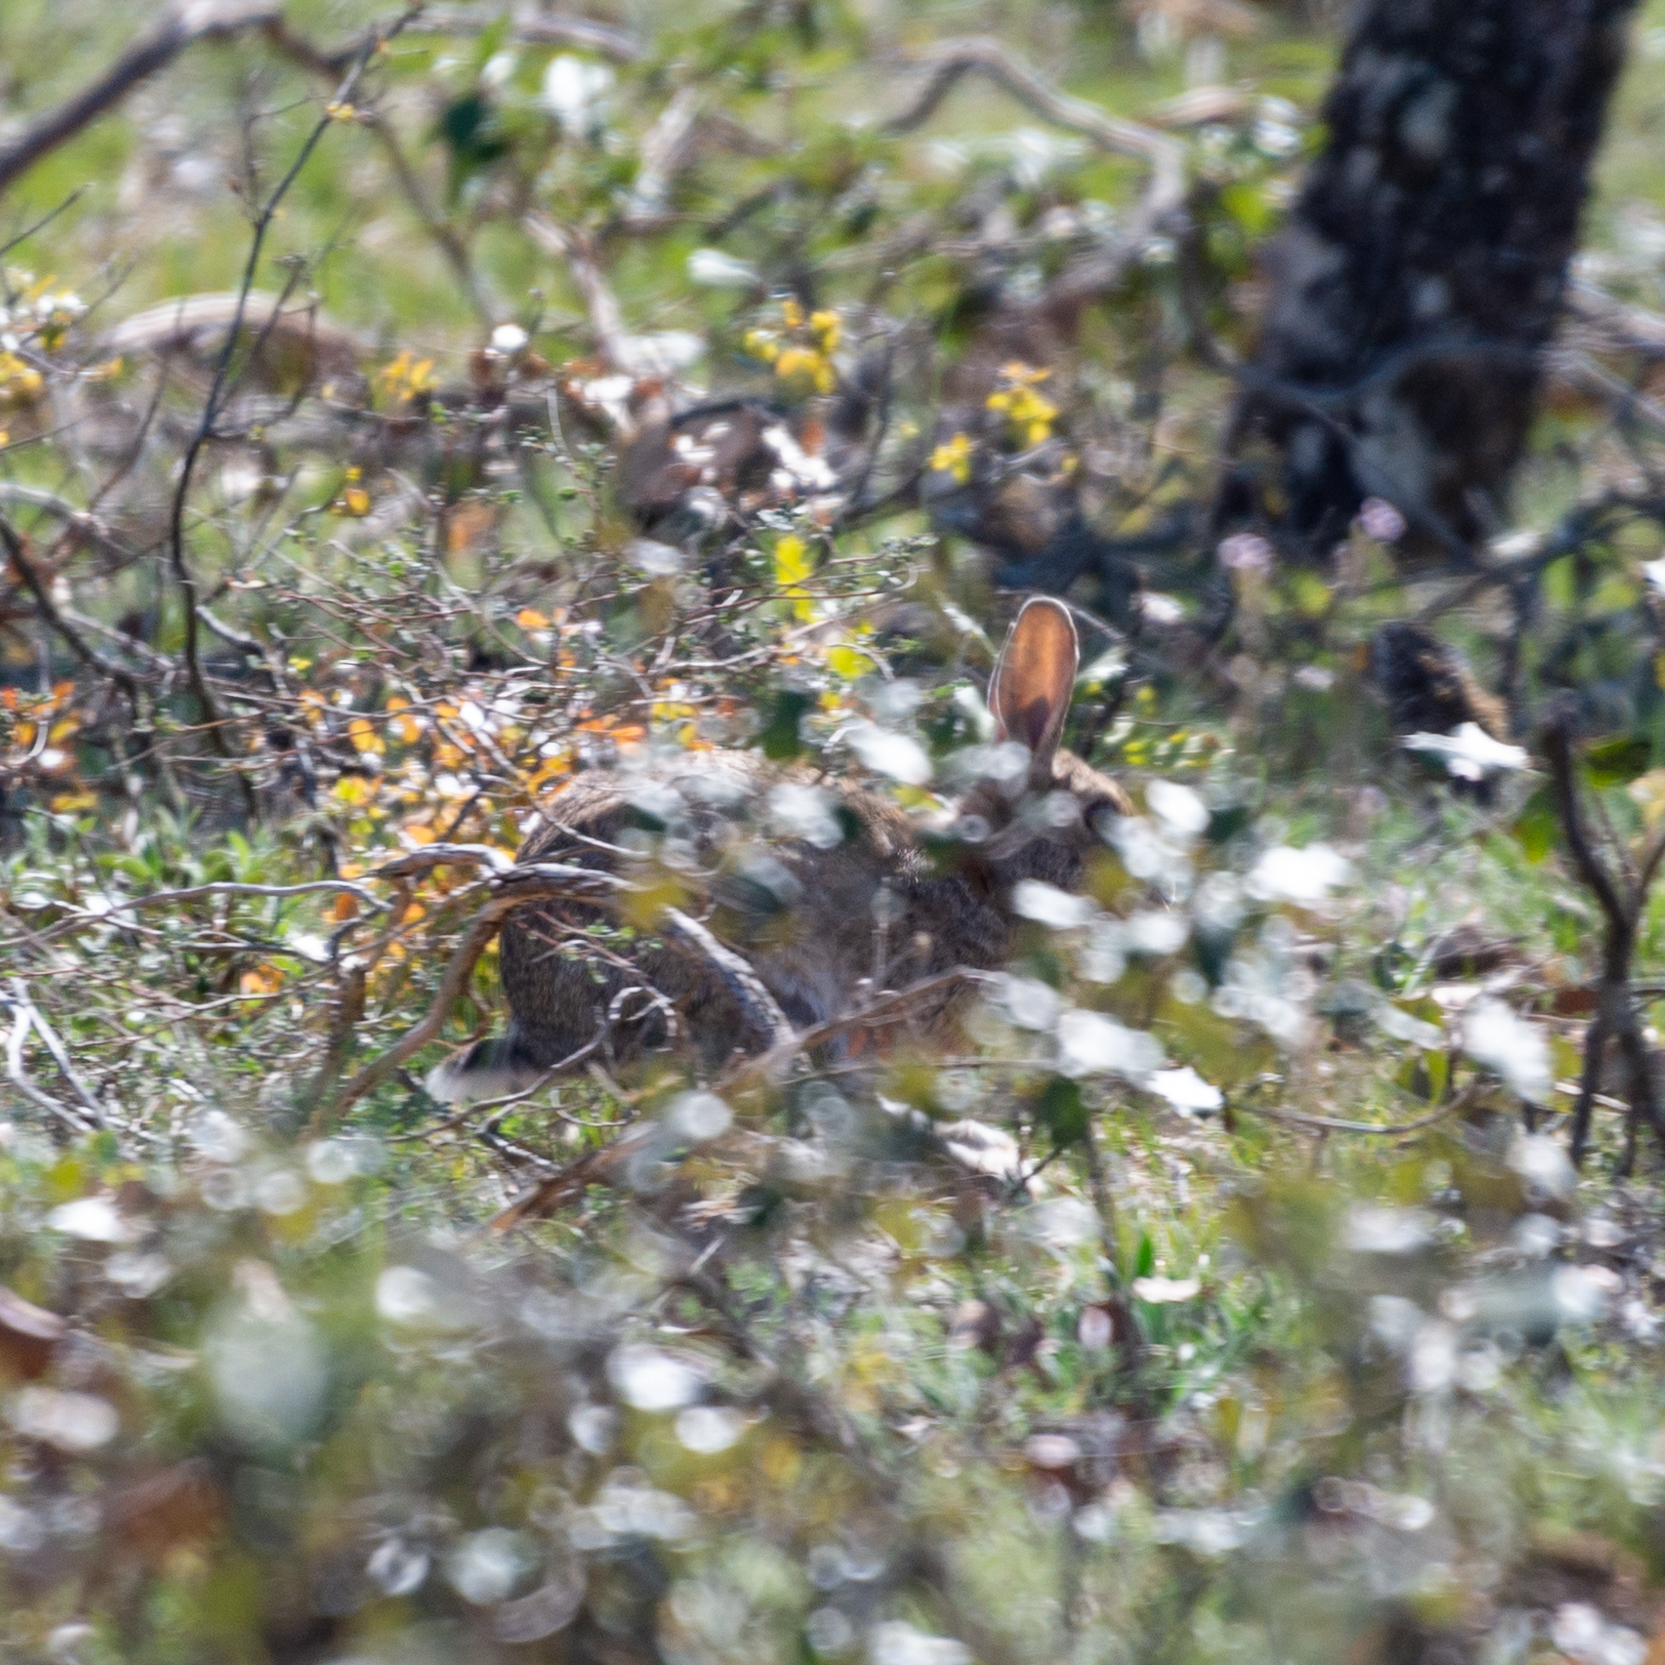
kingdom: Animalia
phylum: Chordata
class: Mammalia
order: Lagomorpha
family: Leporidae
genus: Oryctolagus
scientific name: Oryctolagus cuniculus
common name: European rabbit
